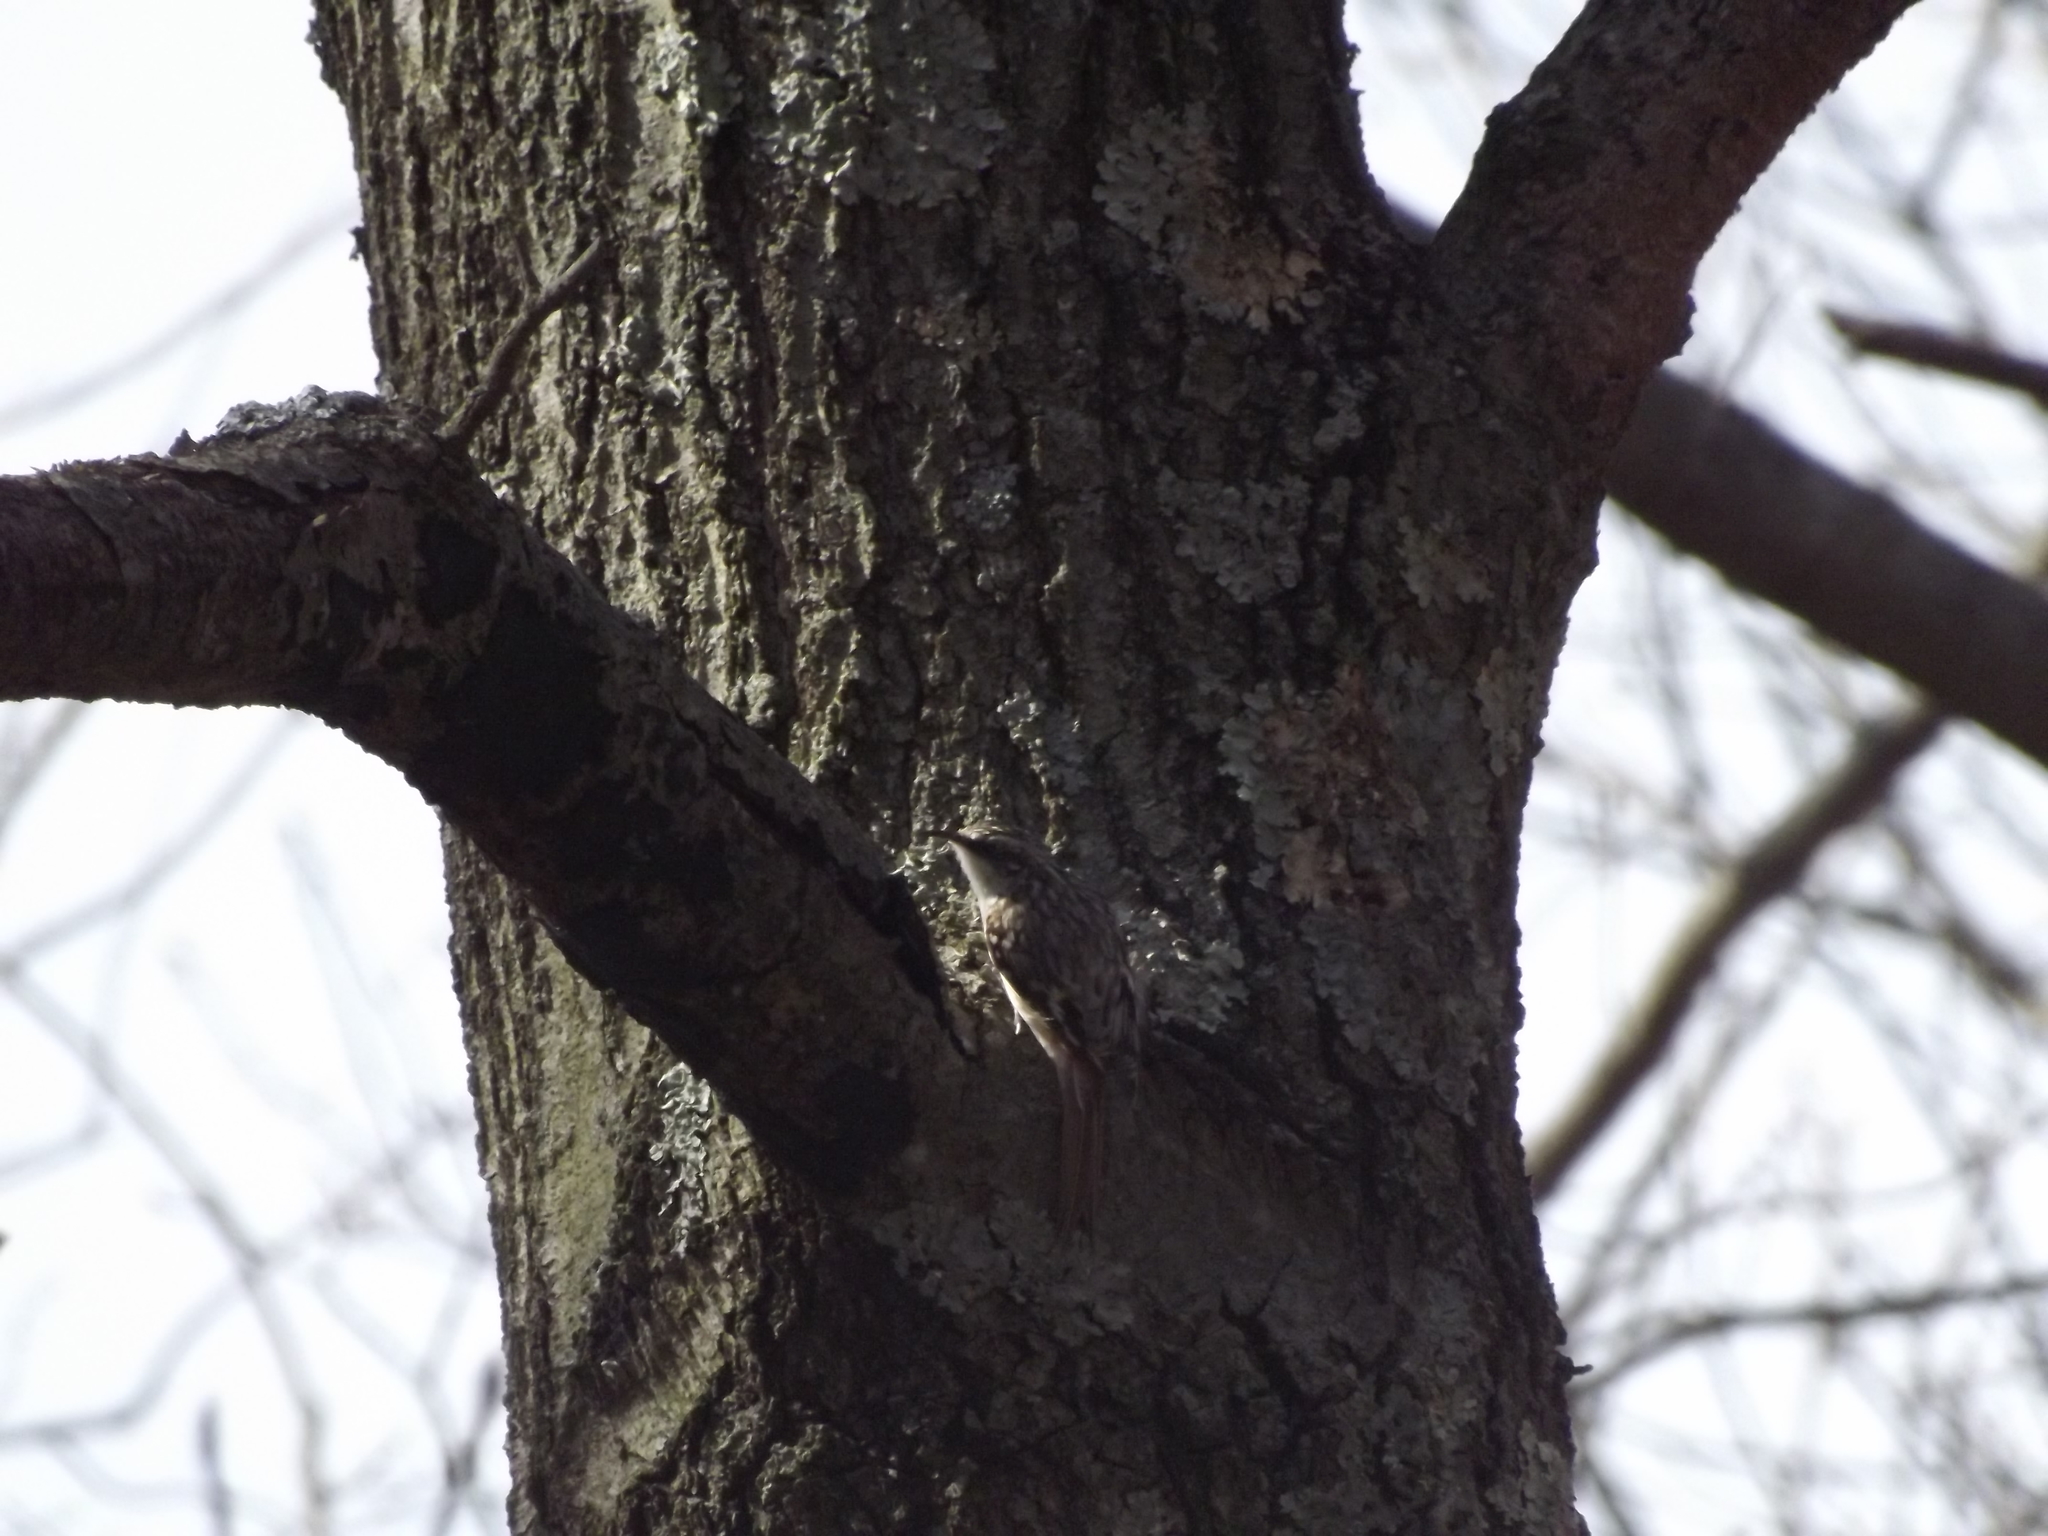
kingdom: Animalia
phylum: Chordata
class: Aves
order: Passeriformes
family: Certhiidae
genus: Certhia
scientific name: Certhia americana
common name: Brown creeper
